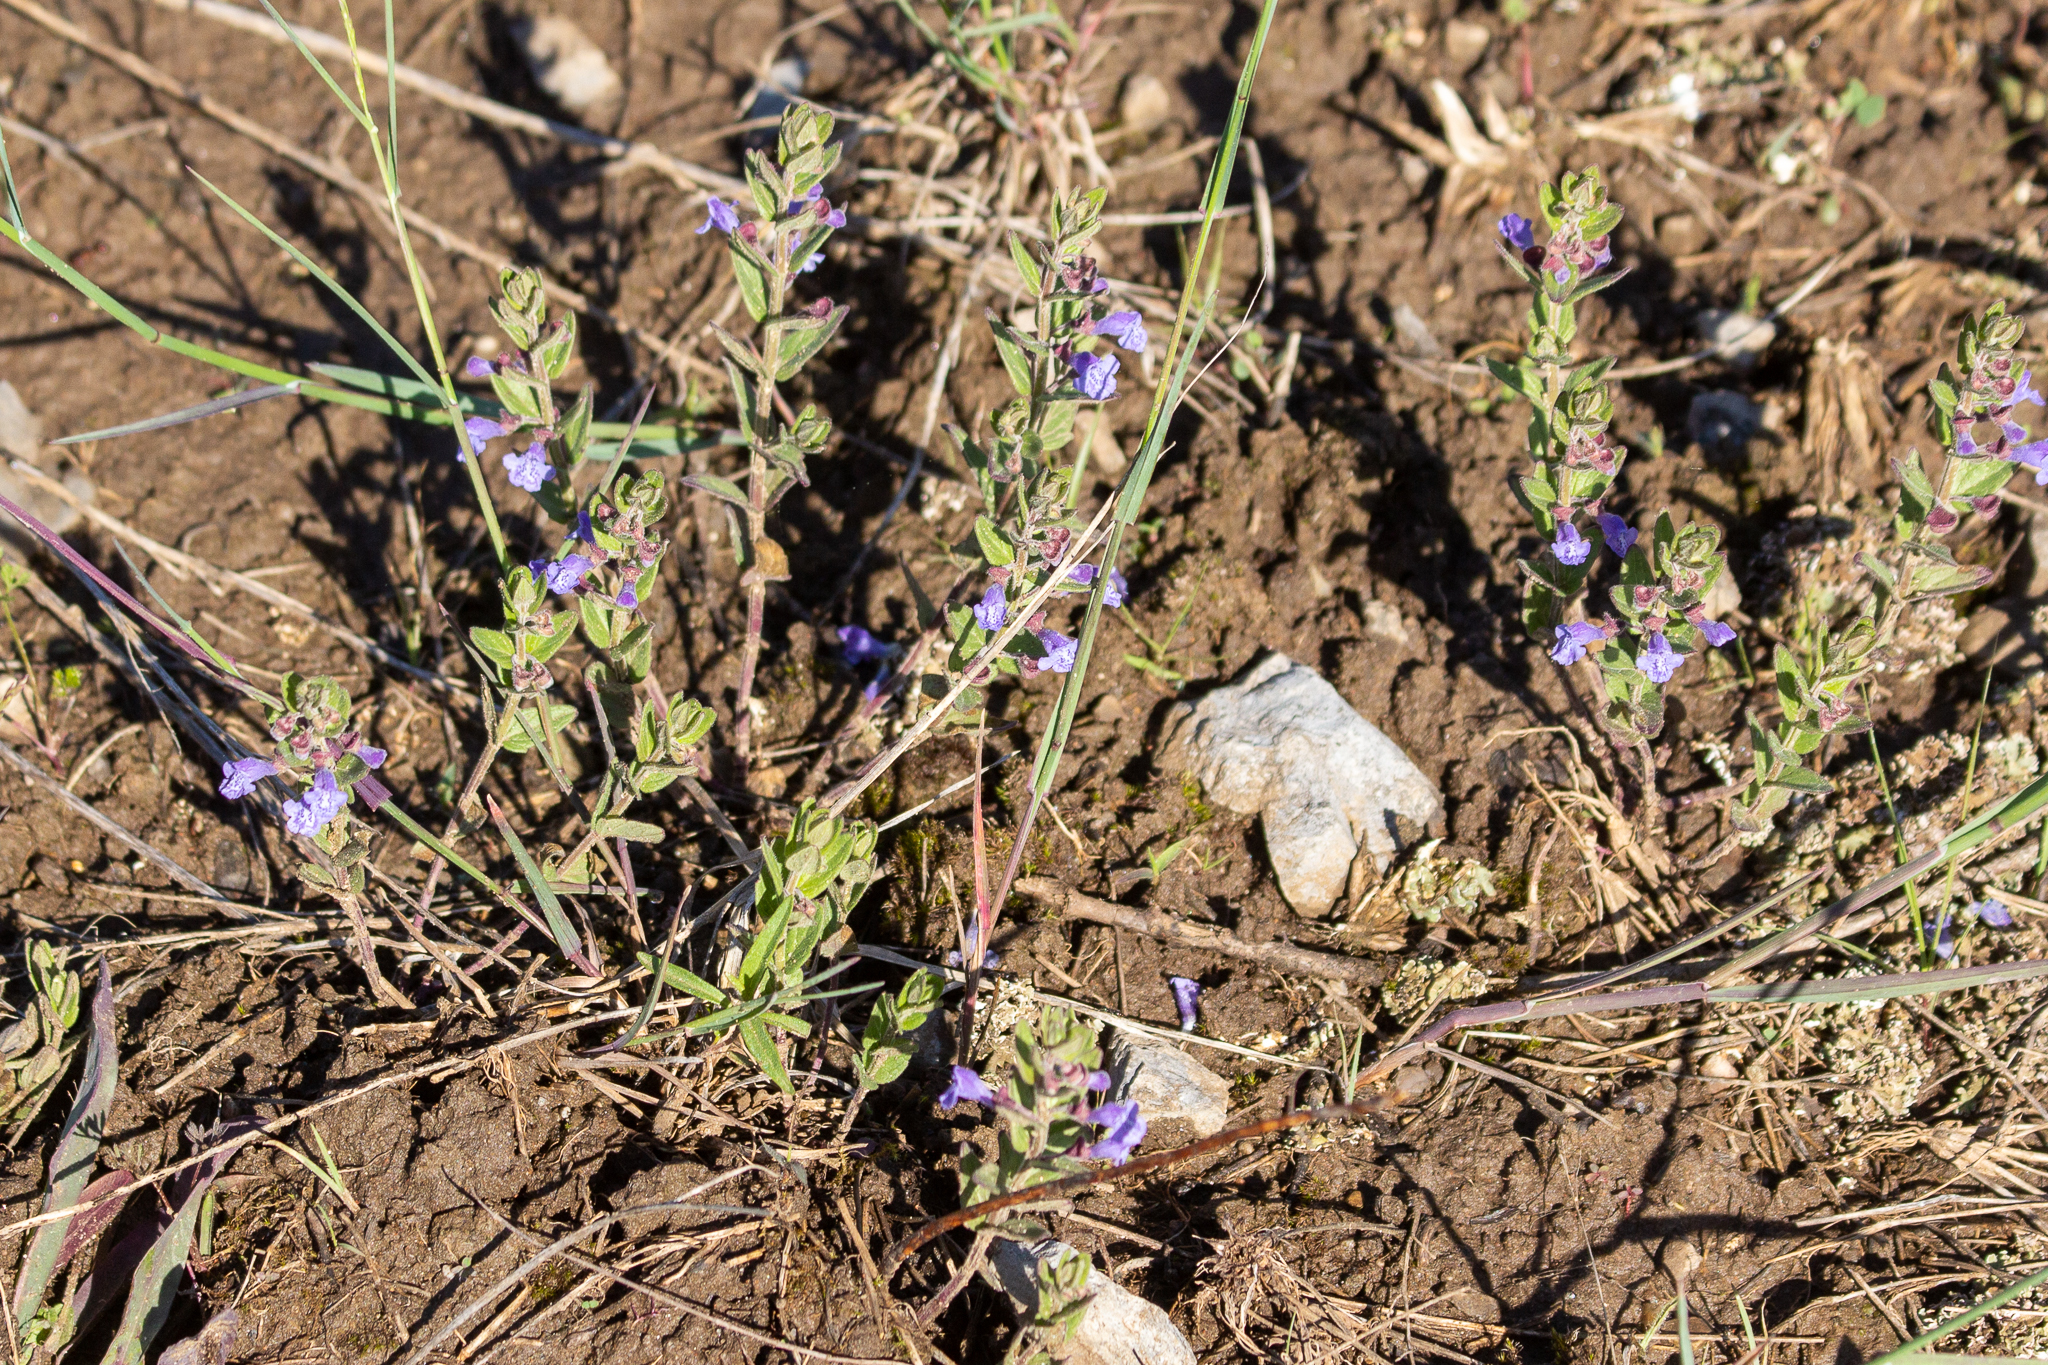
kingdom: Plantae
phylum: Tracheophyta
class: Magnoliopsida
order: Lamiales
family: Lamiaceae
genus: Scutellaria
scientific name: Scutellaria parvula
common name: Little scullcap
